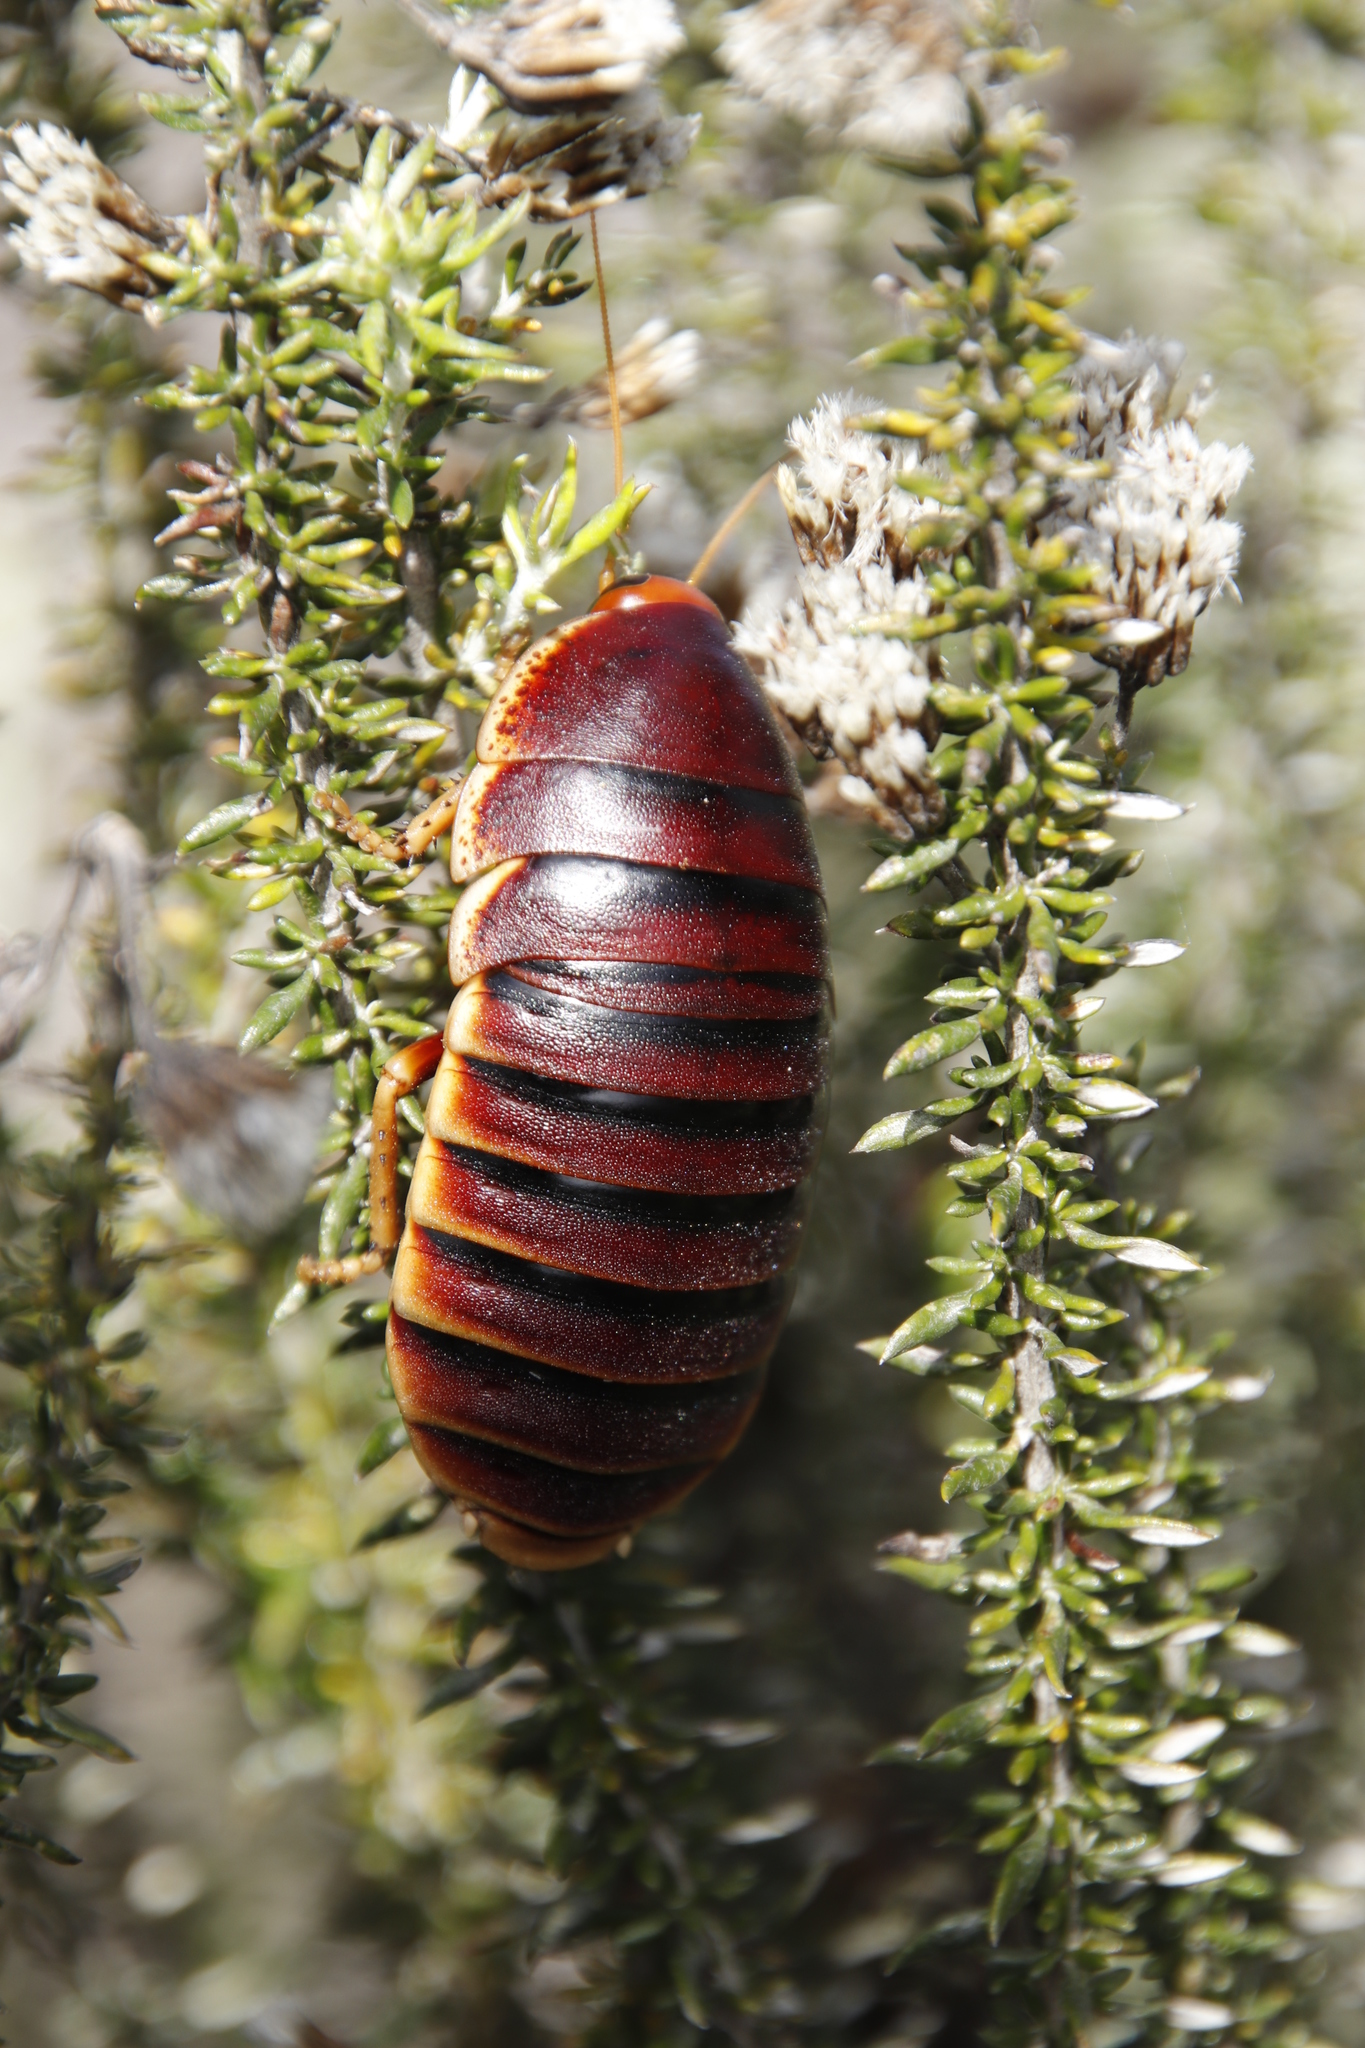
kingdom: Animalia
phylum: Arthropoda
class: Insecta
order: Blattodea
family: Blaberidae
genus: Aptera
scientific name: Aptera fusca
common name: Cape mountain cockroach
